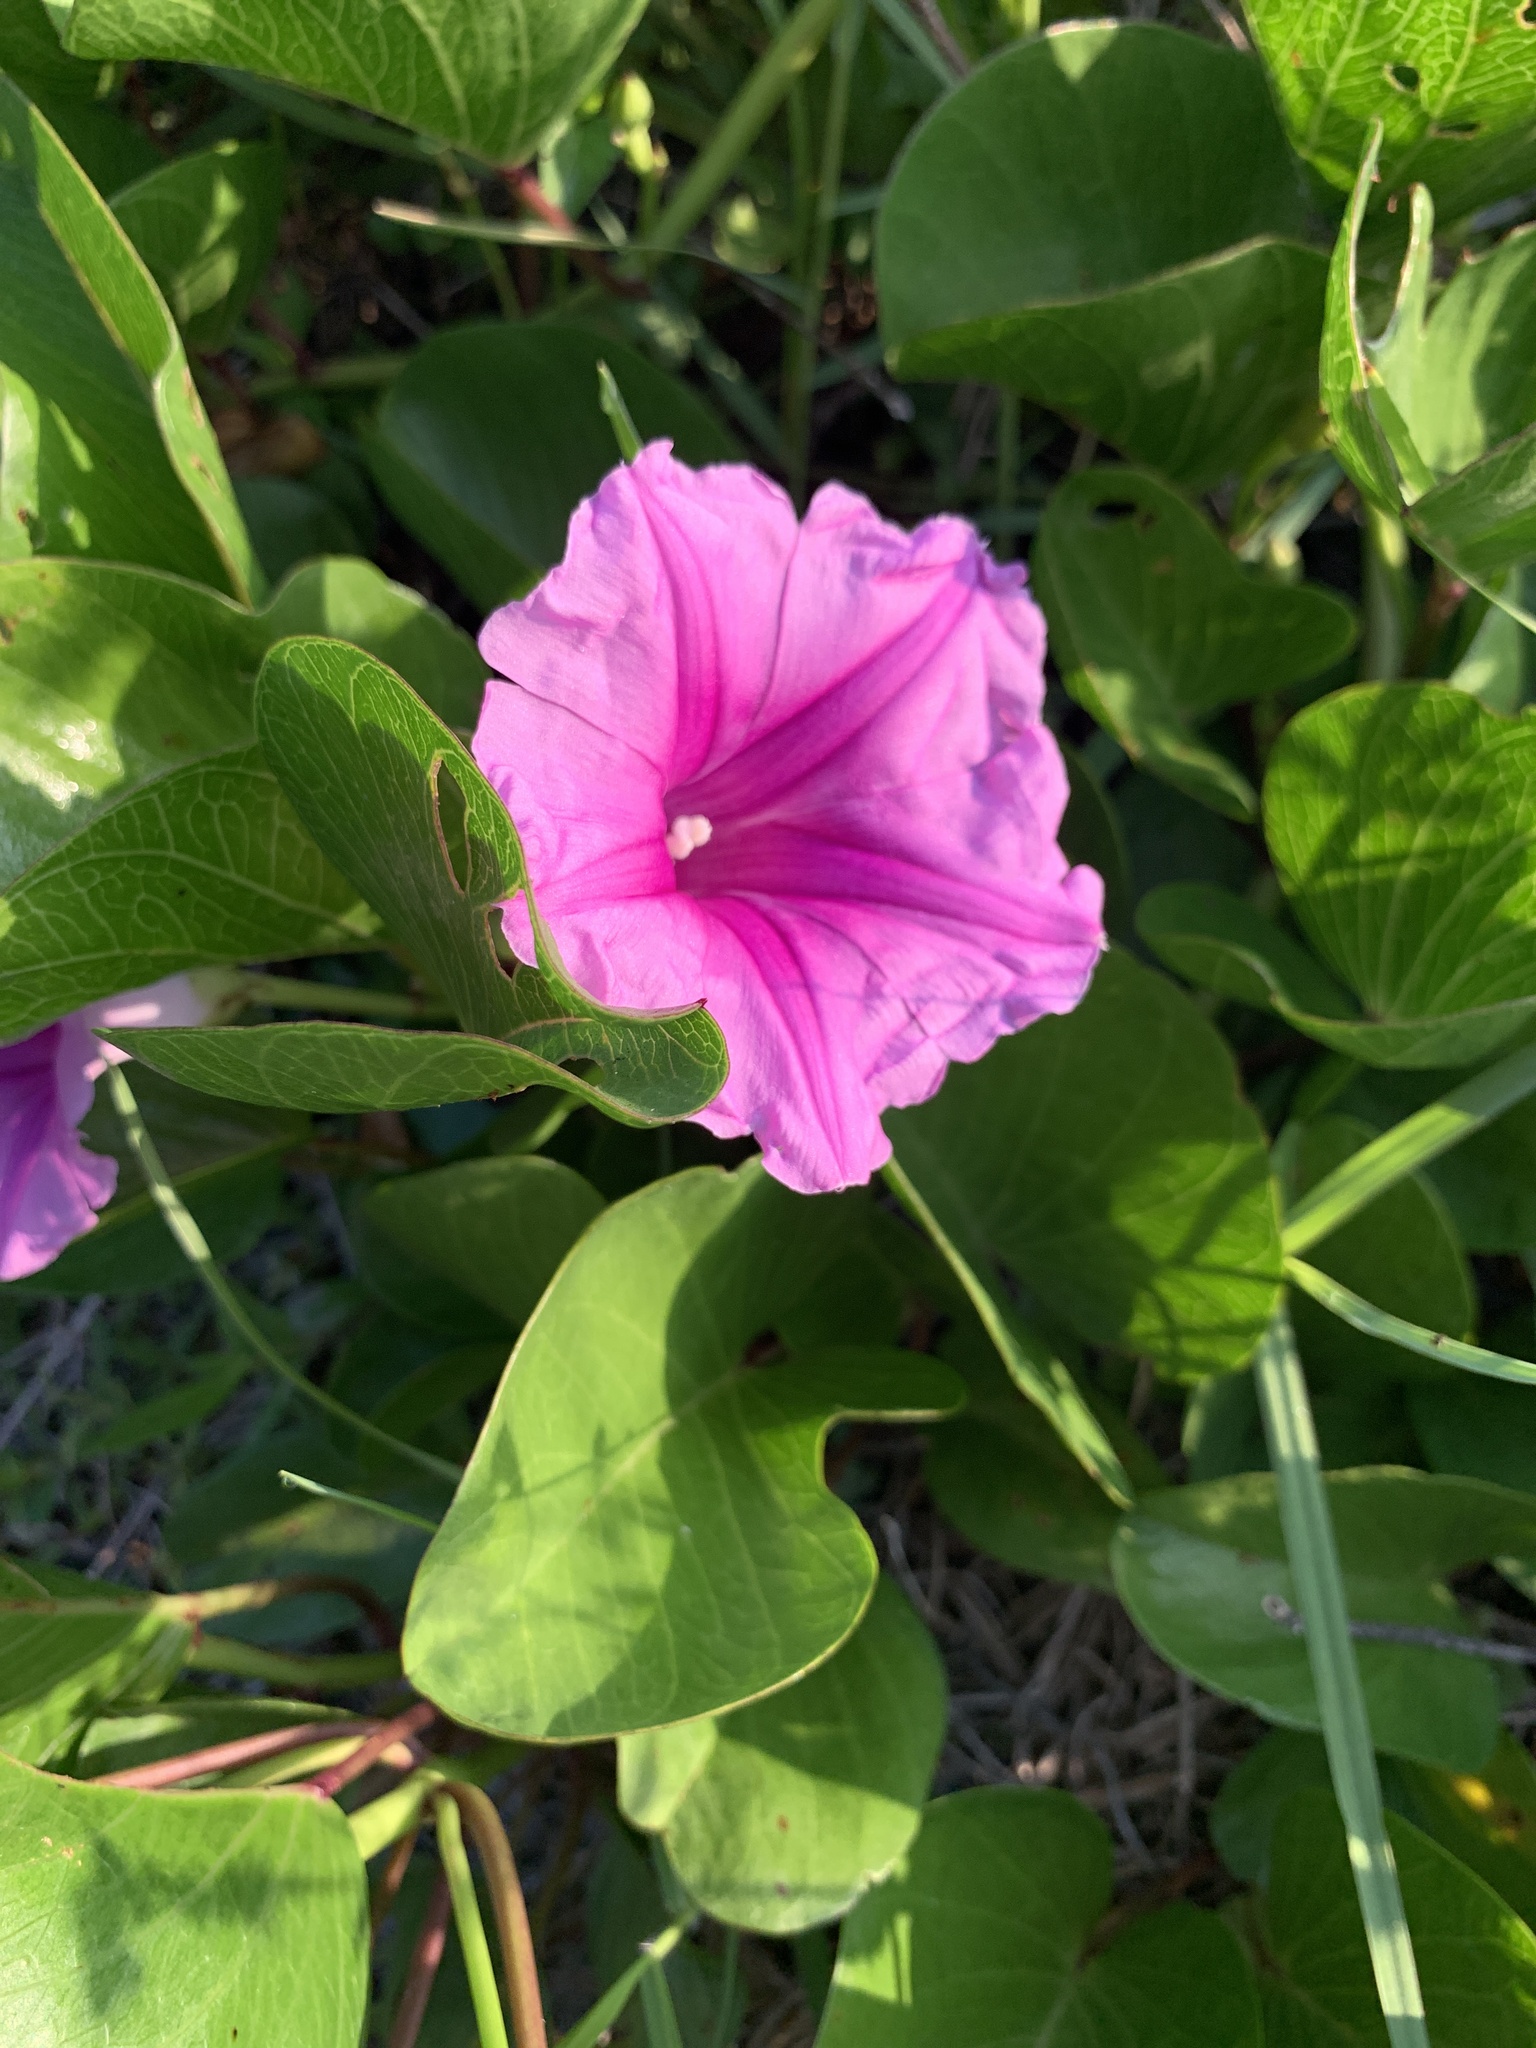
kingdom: Plantae
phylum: Tracheophyta
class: Magnoliopsida
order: Solanales
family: Convolvulaceae
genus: Ipomoea
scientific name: Ipomoea pes-caprae
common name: Beach morning glory
